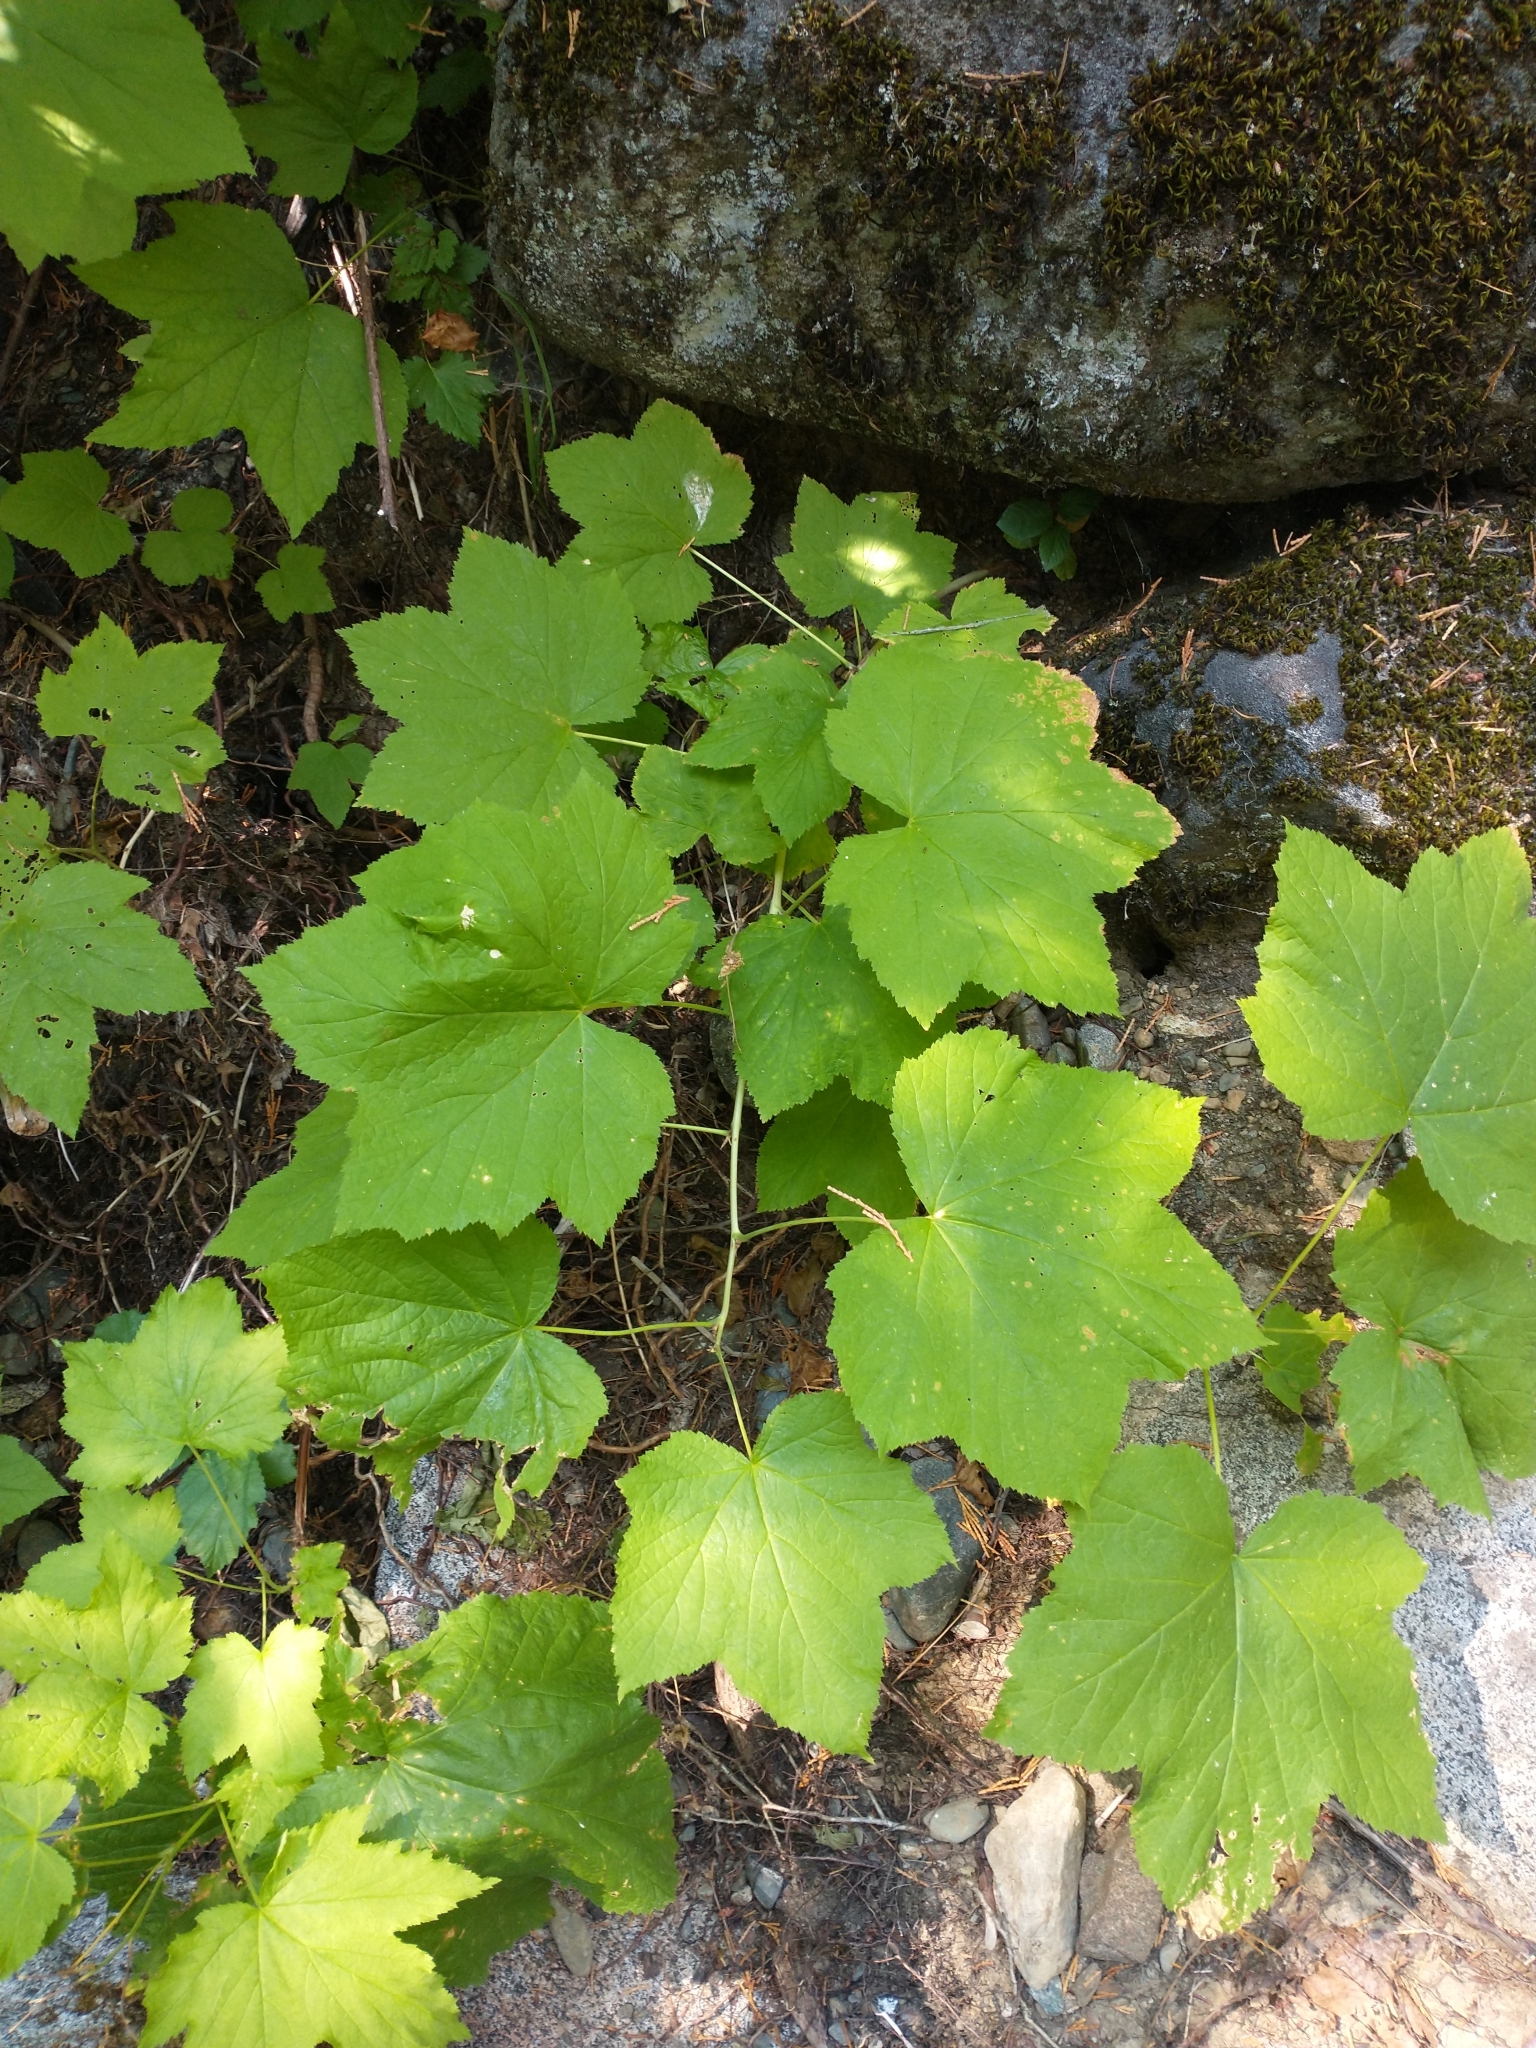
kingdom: Plantae
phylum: Tracheophyta
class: Magnoliopsida
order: Rosales
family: Rosaceae
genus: Rubus
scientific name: Rubus parviflorus
